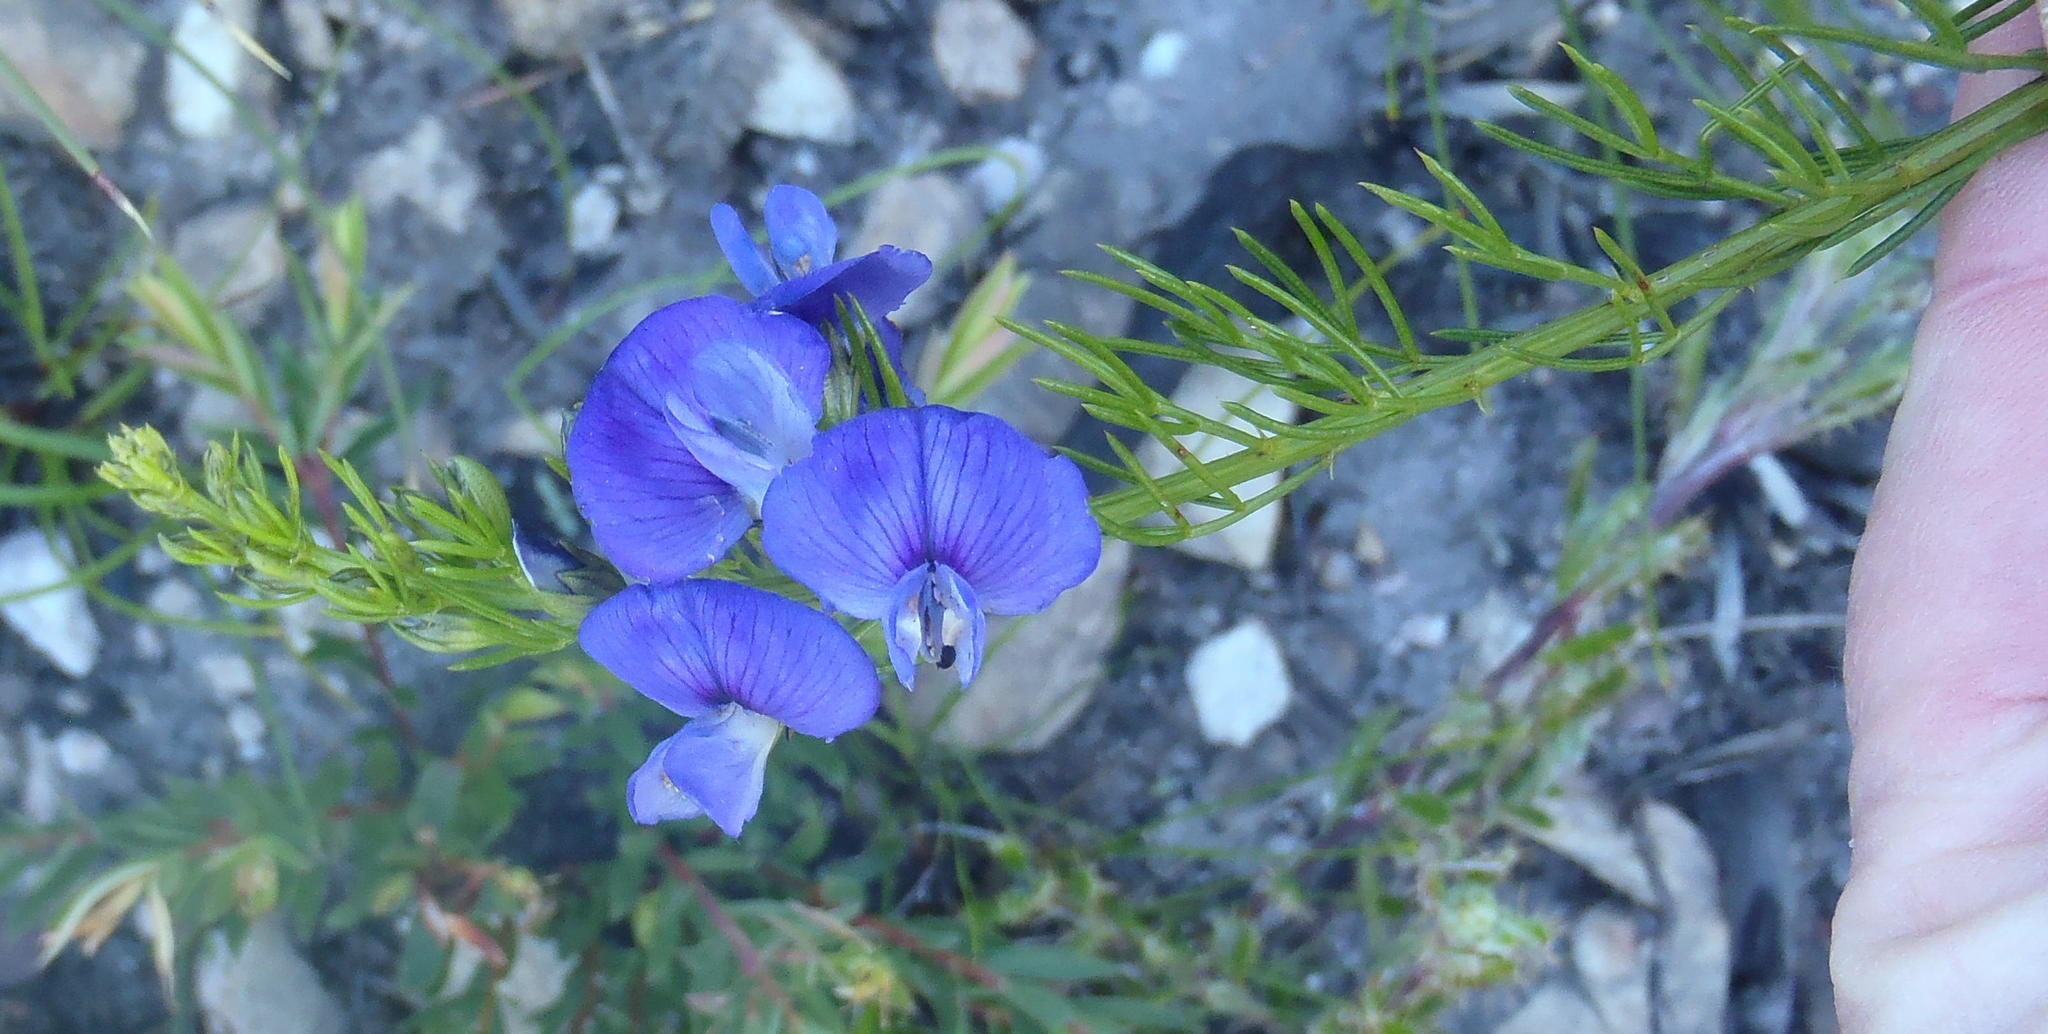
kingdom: Plantae
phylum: Tracheophyta
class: Magnoliopsida
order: Fabales
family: Fabaceae
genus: Psoralea
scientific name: Psoralea laevigata
